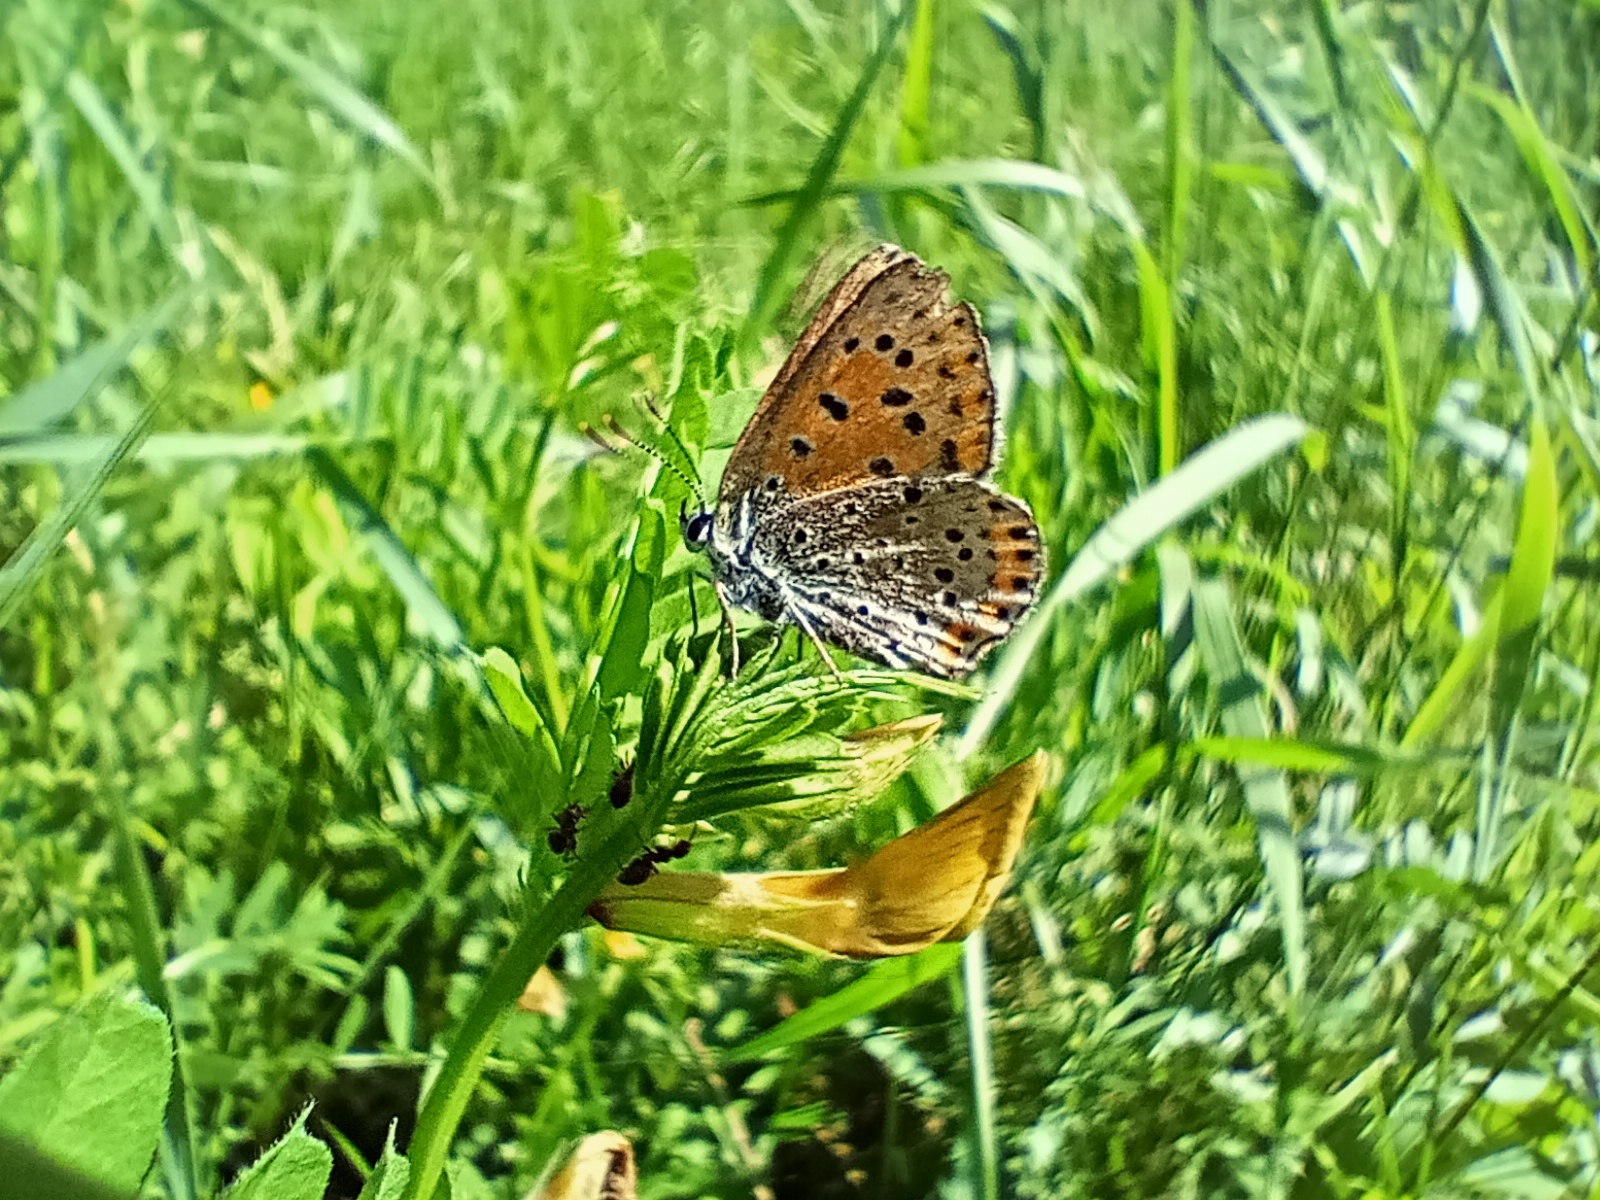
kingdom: Animalia
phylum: Arthropoda
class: Insecta
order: Lepidoptera
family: Lycaenidae
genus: Loweia
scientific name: Loweia tityrus
